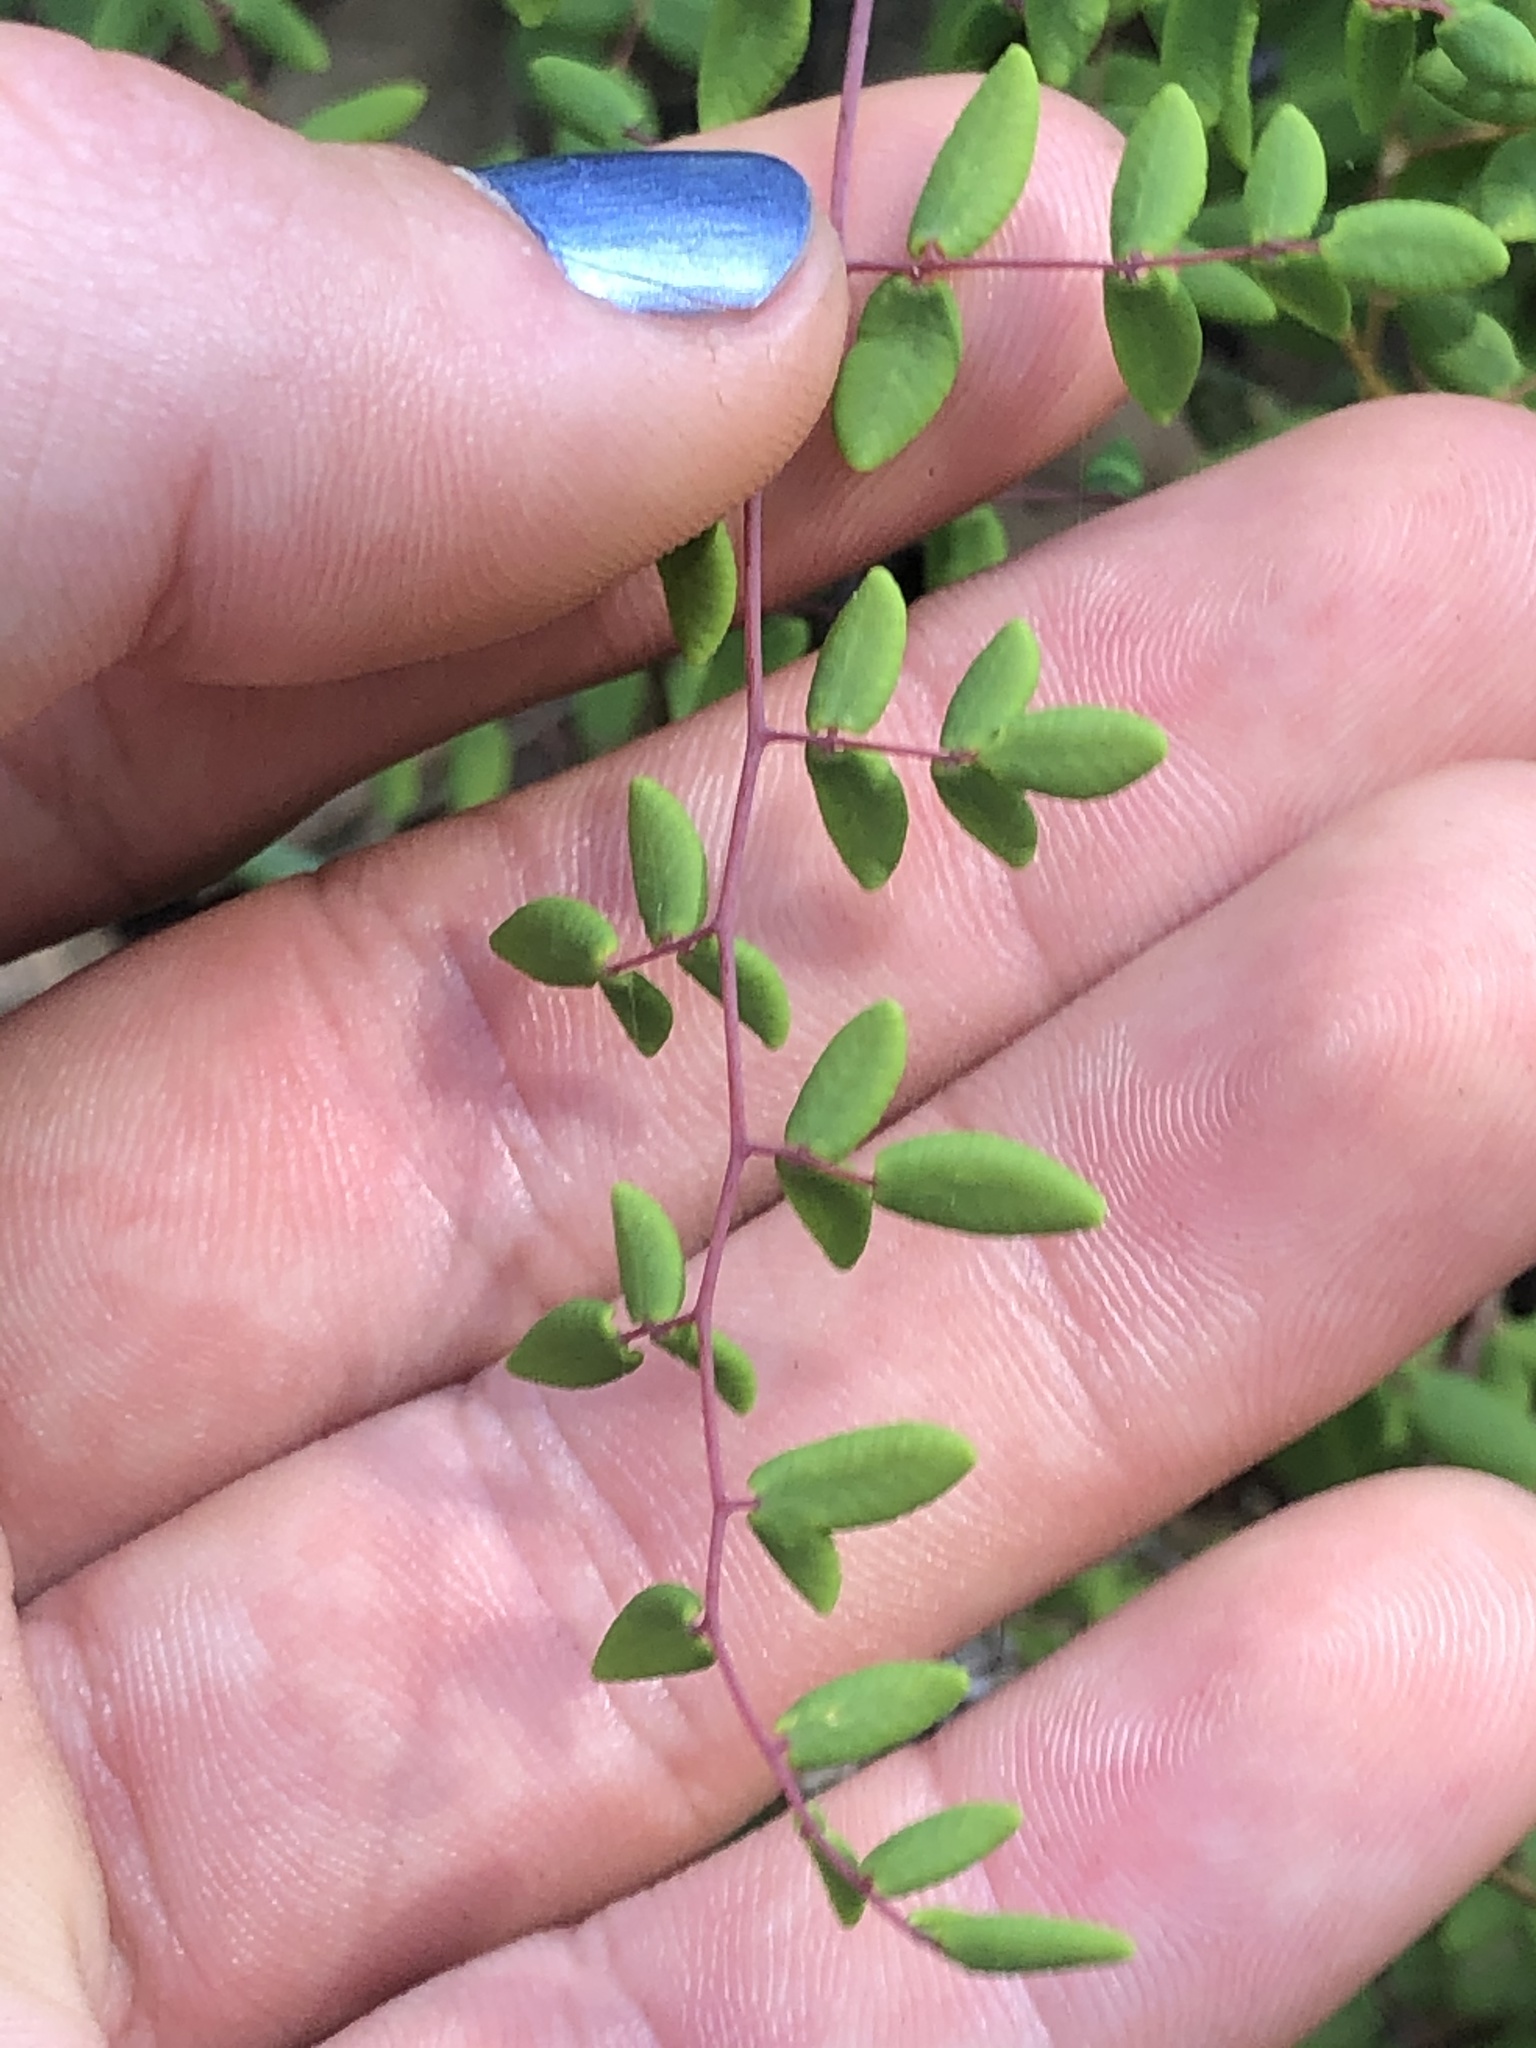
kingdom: Plantae
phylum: Tracheophyta
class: Polypodiopsida
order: Polypodiales
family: Pteridaceae
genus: Pellaea
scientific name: Pellaea andromedifolia
